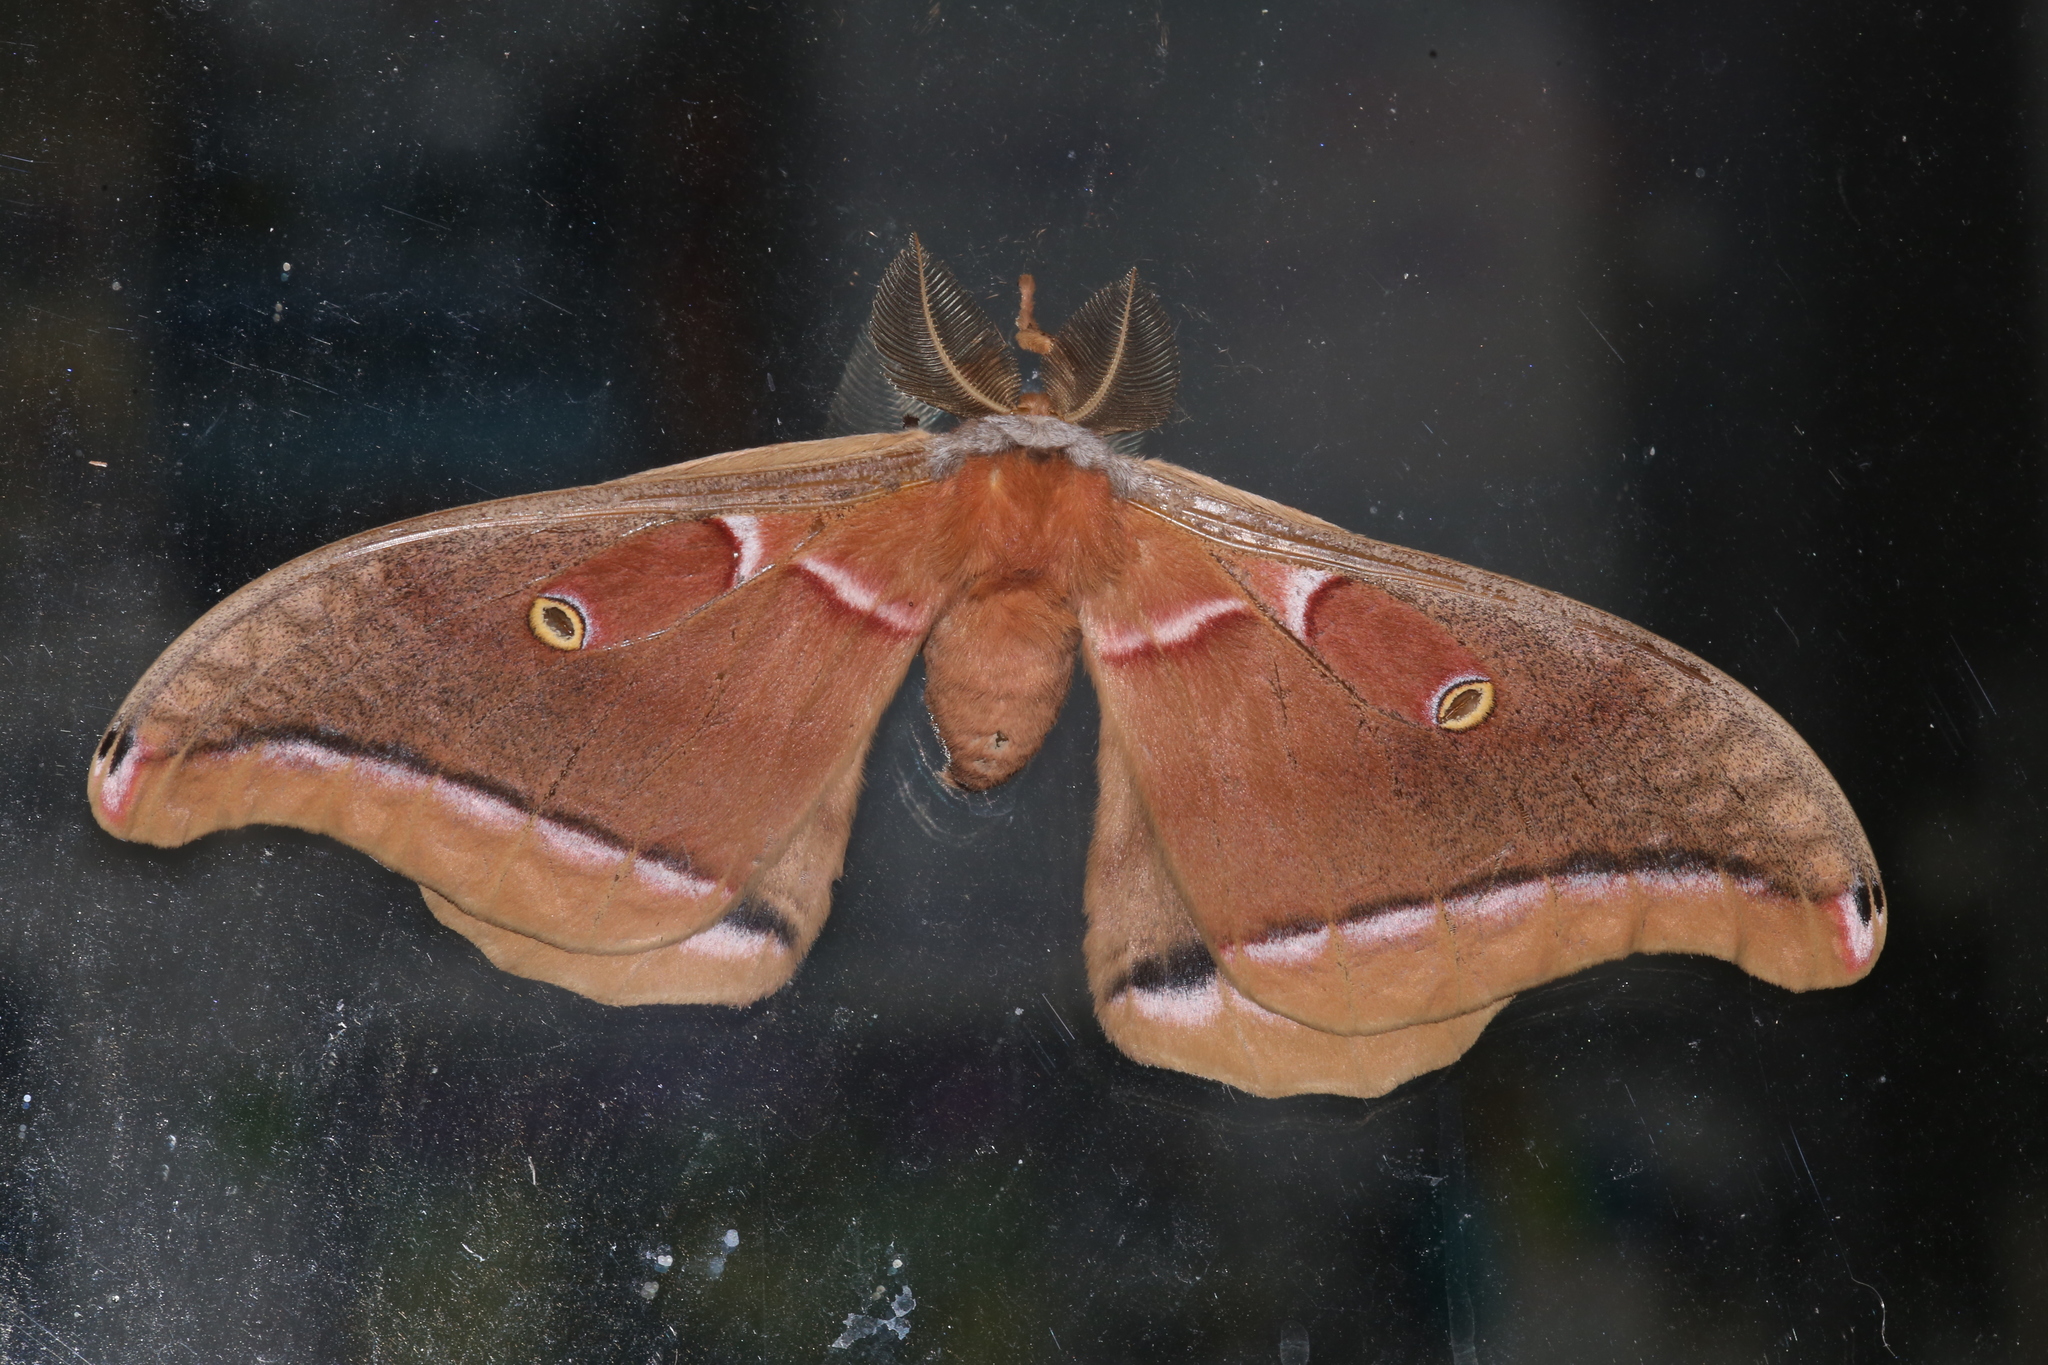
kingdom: Animalia
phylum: Arthropoda
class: Insecta
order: Lepidoptera
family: Saturniidae
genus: Antheraea
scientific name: Antheraea polyphemus
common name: Polyphemus moth
